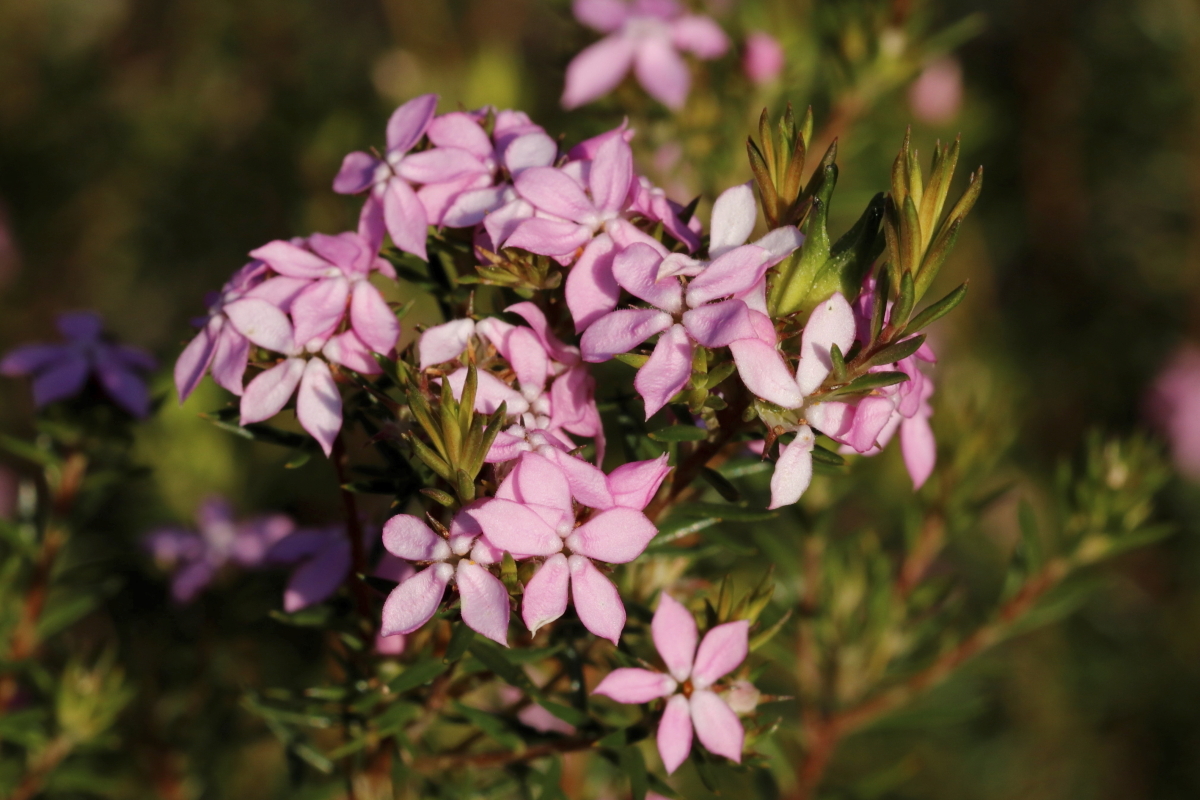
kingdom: Plantae
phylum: Tracheophyta
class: Magnoliopsida
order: Sapindales
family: Rutaceae
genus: Acmadenia
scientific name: Acmadenia alternifolia
